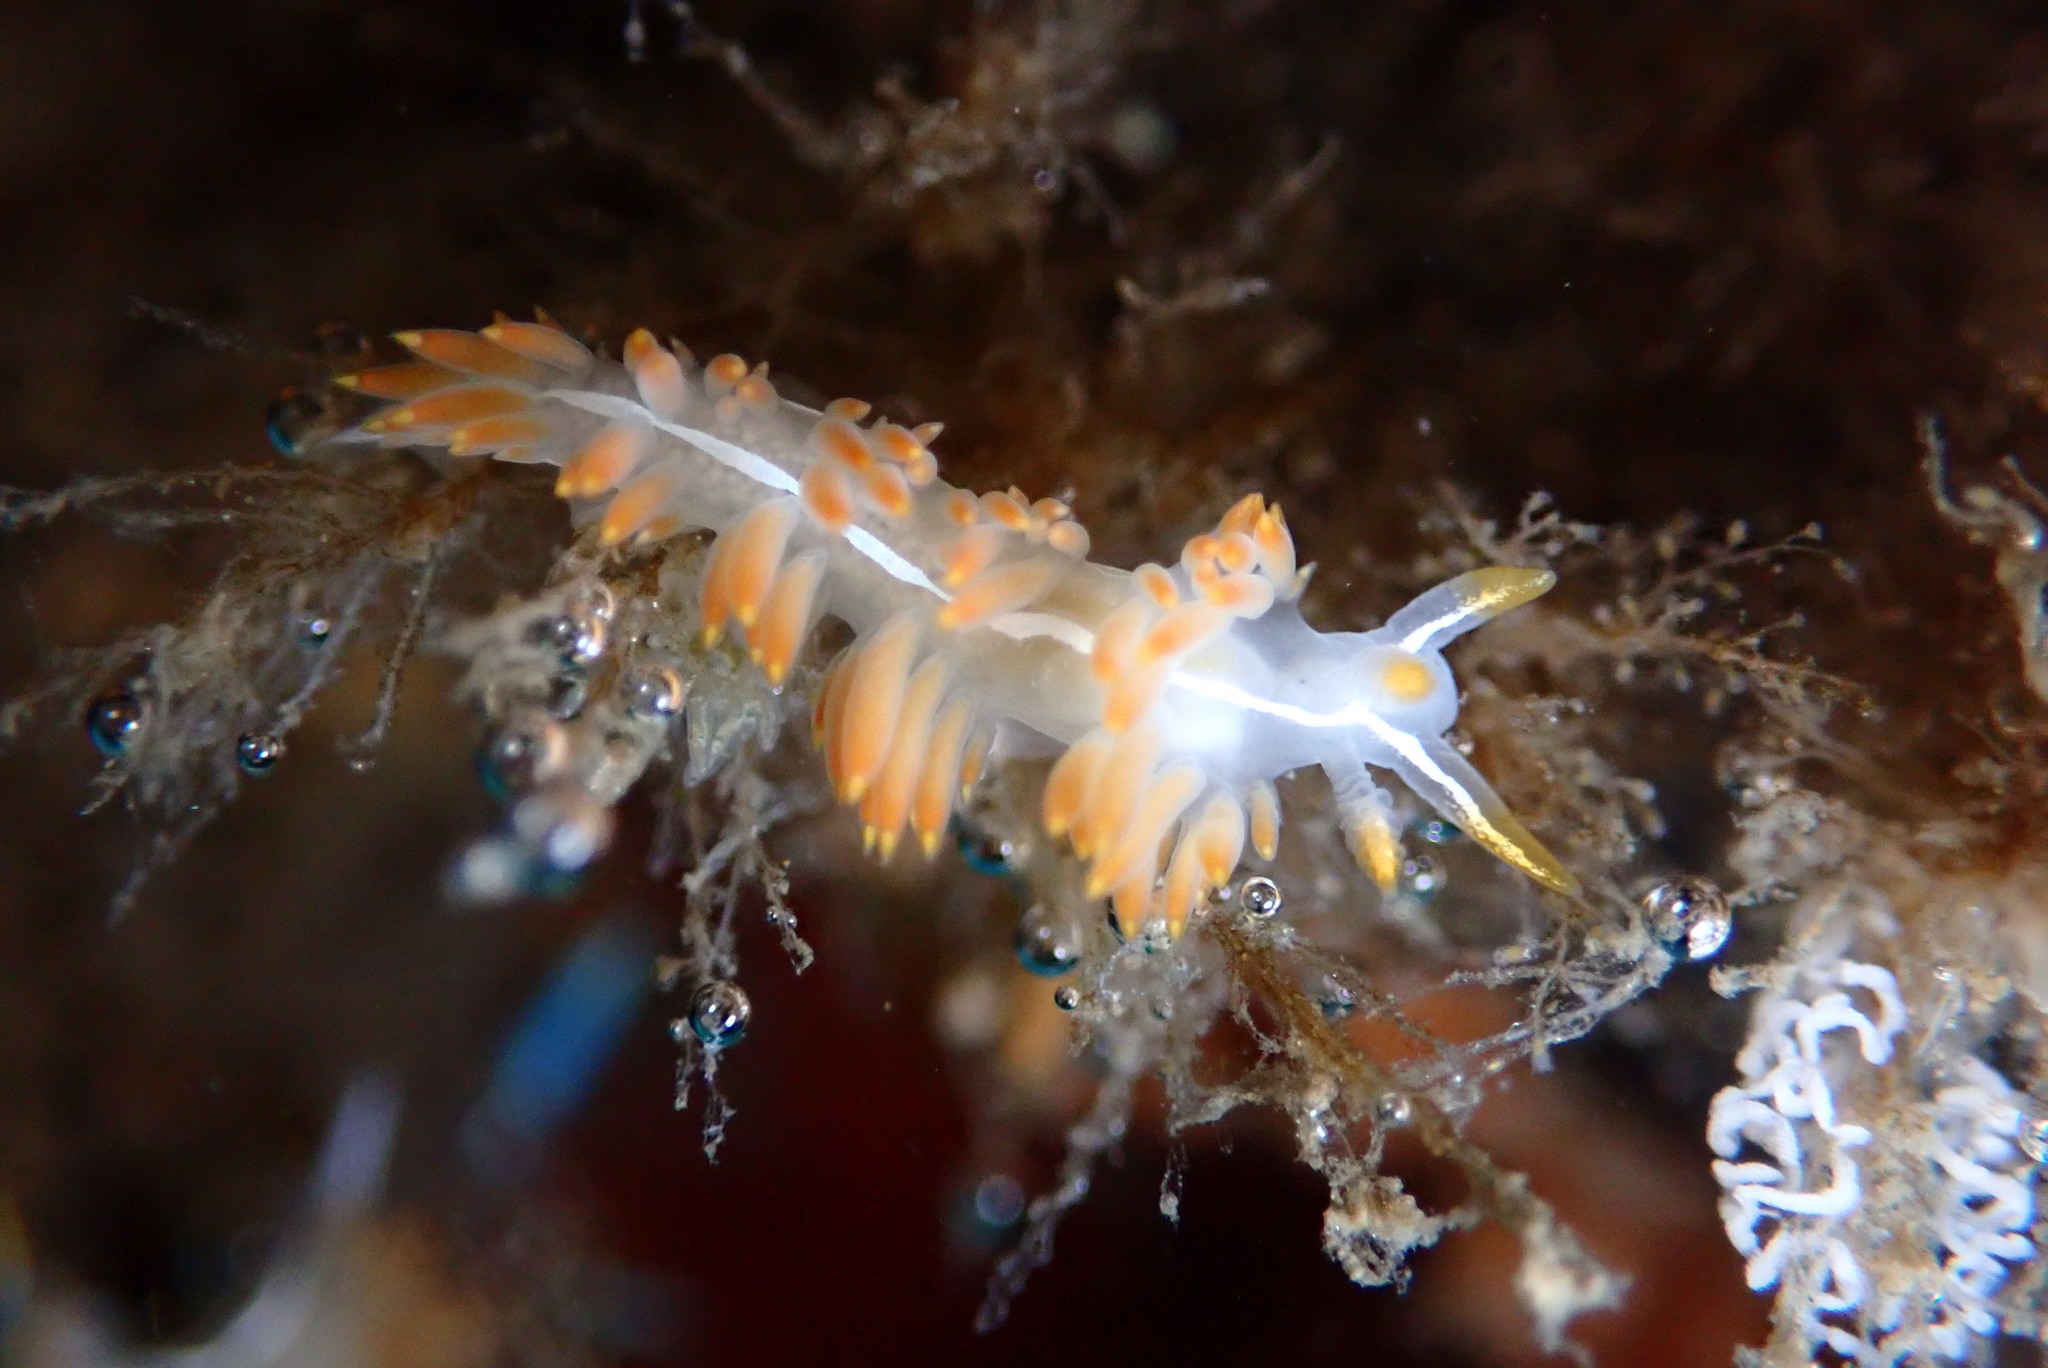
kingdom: Animalia
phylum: Mollusca
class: Gastropoda
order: Nudibranchia
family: Coryphellidae
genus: Coryphella
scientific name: Coryphella trilineata
